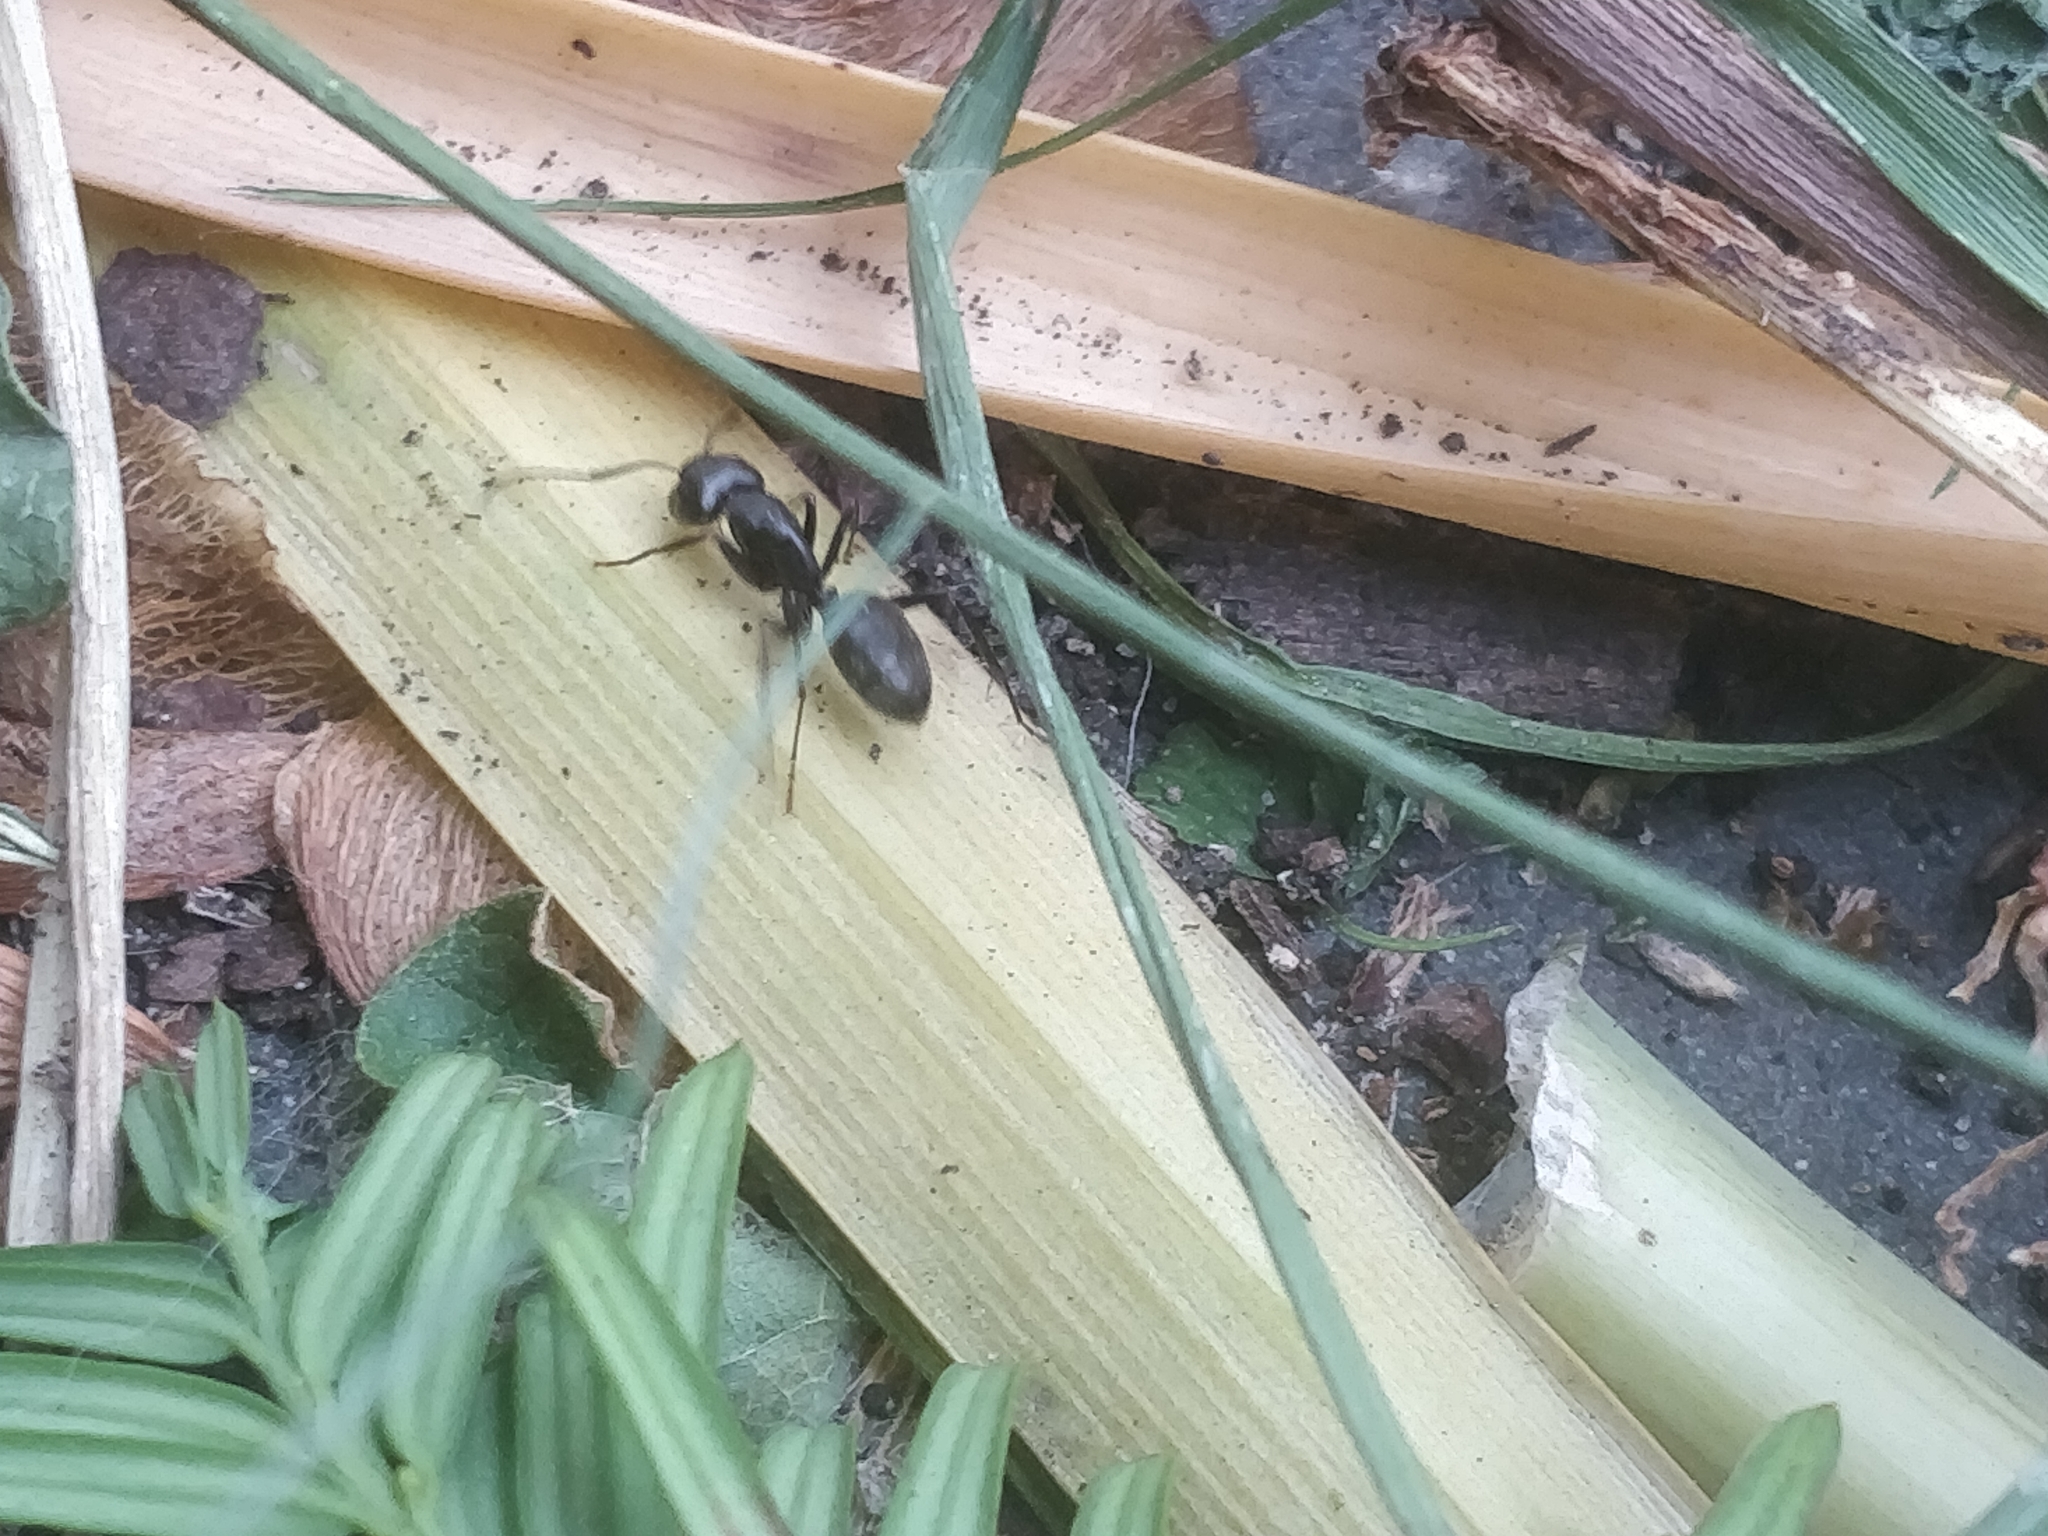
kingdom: Animalia
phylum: Arthropoda
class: Insecta
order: Hymenoptera
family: Formicidae
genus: Camponotus
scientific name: Camponotus pennsylvanicus
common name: Black carpenter ant
